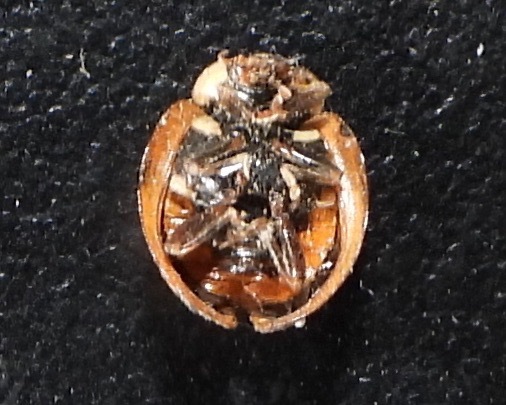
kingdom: Animalia
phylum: Arthropoda
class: Insecta
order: Coleoptera
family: Coccinellidae
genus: Harmonia
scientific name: Harmonia axyridis
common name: Harlequin ladybird
